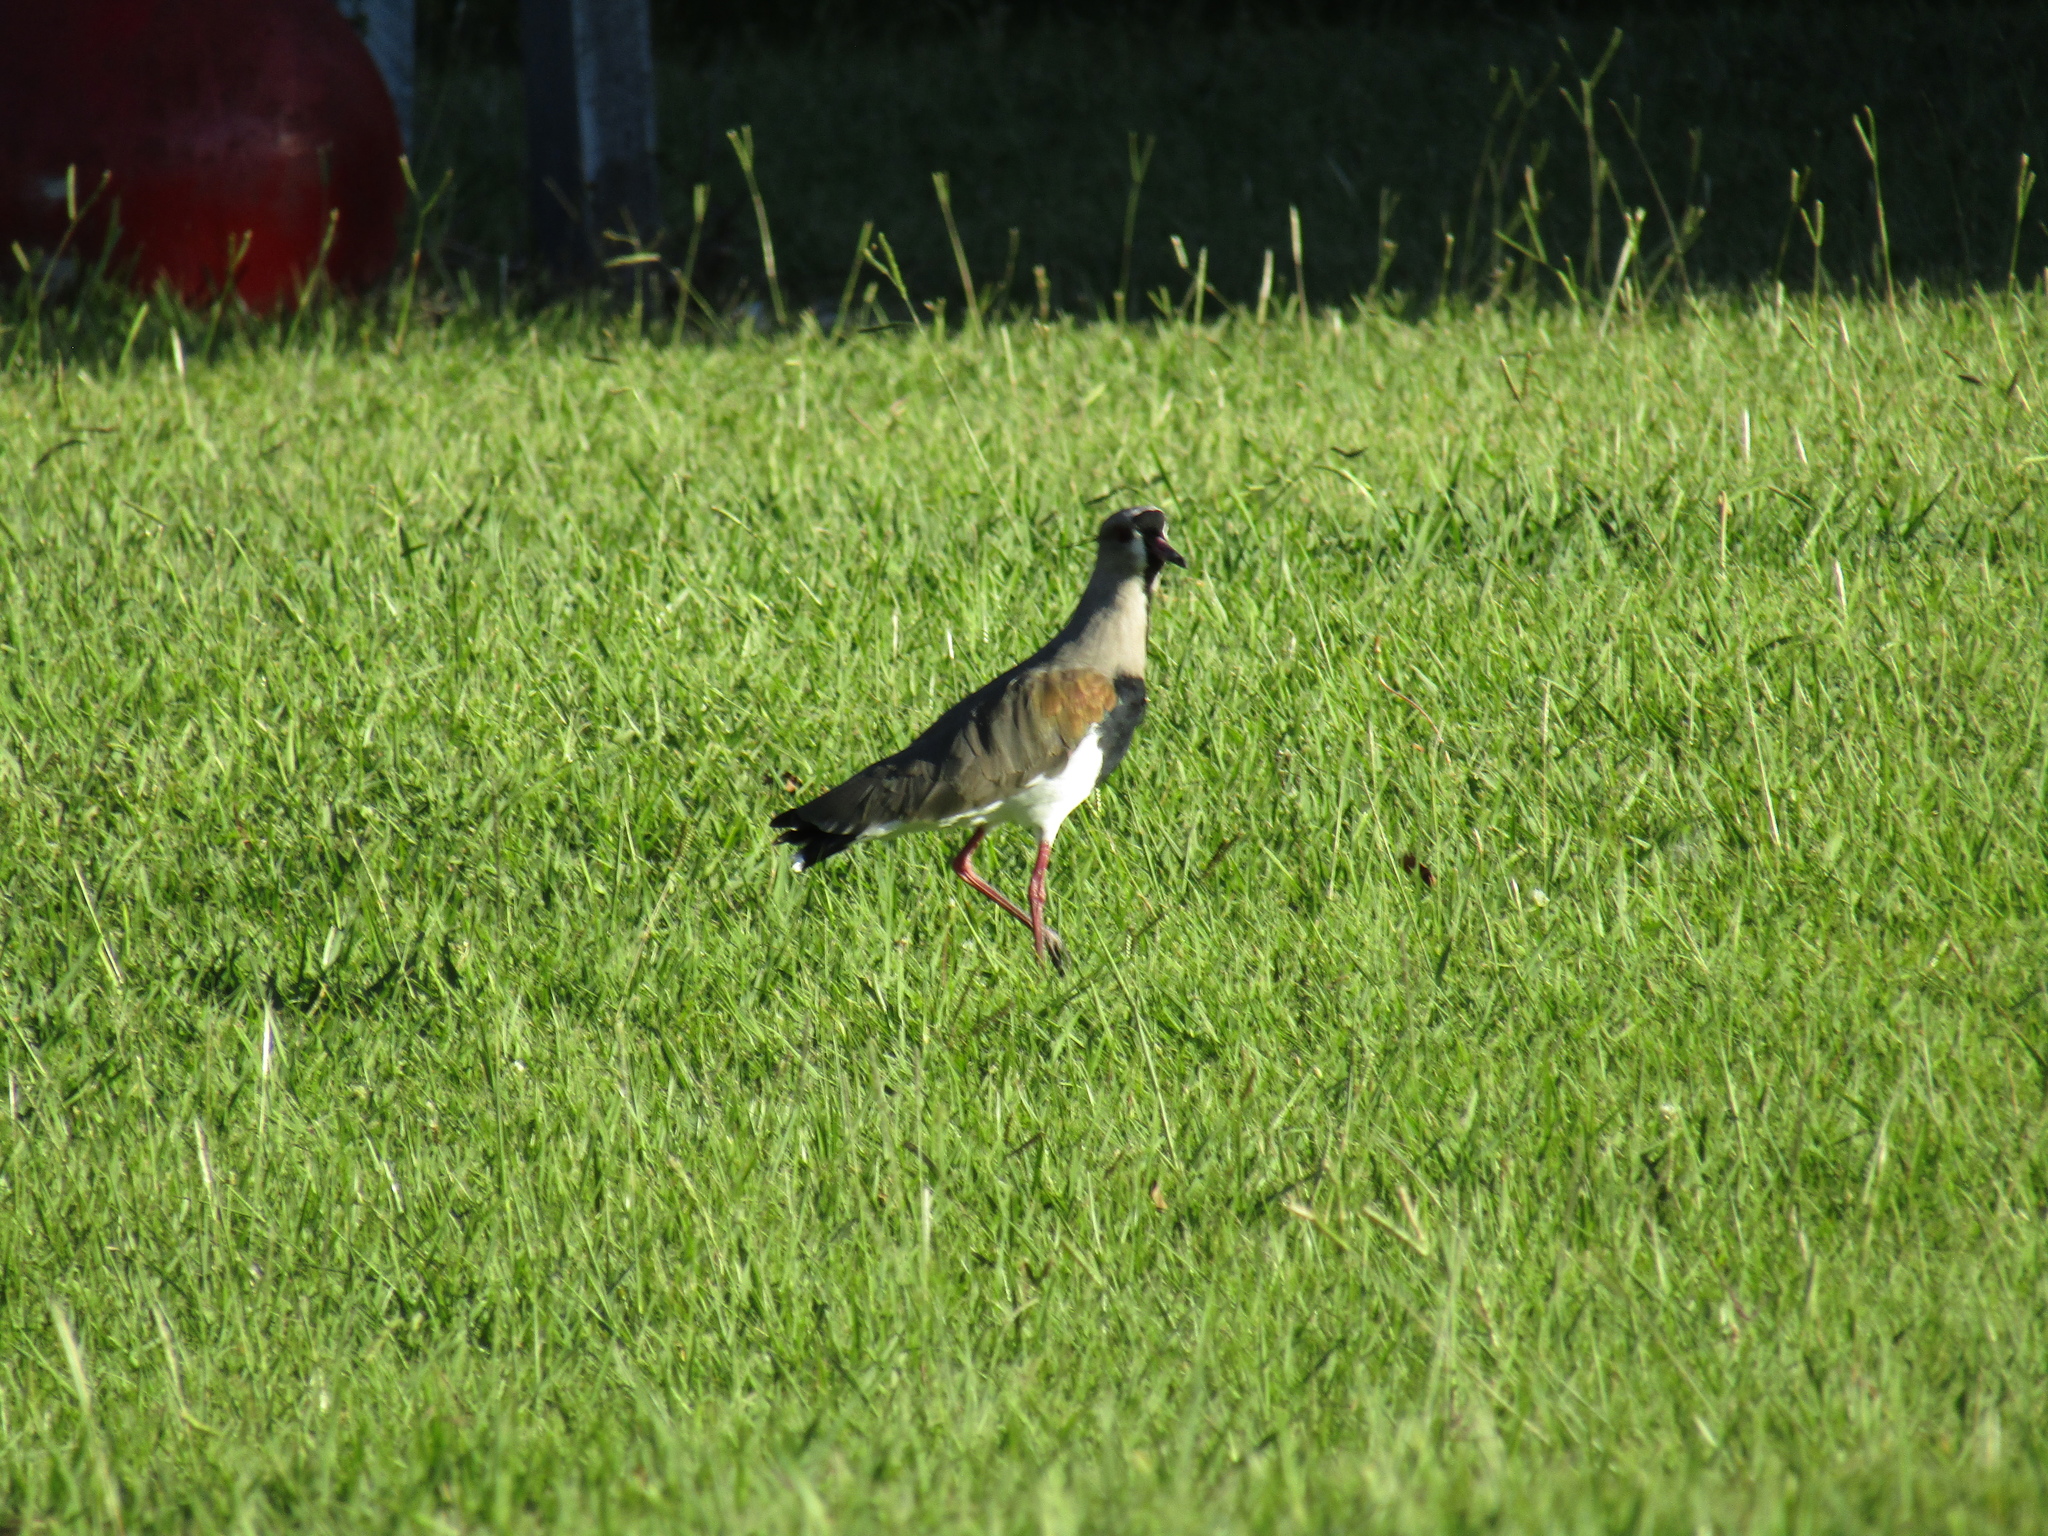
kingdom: Animalia
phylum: Chordata
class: Aves
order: Charadriiformes
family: Charadriidae
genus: Vanellus
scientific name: Vanellus chilensis
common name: Southern lapwing
